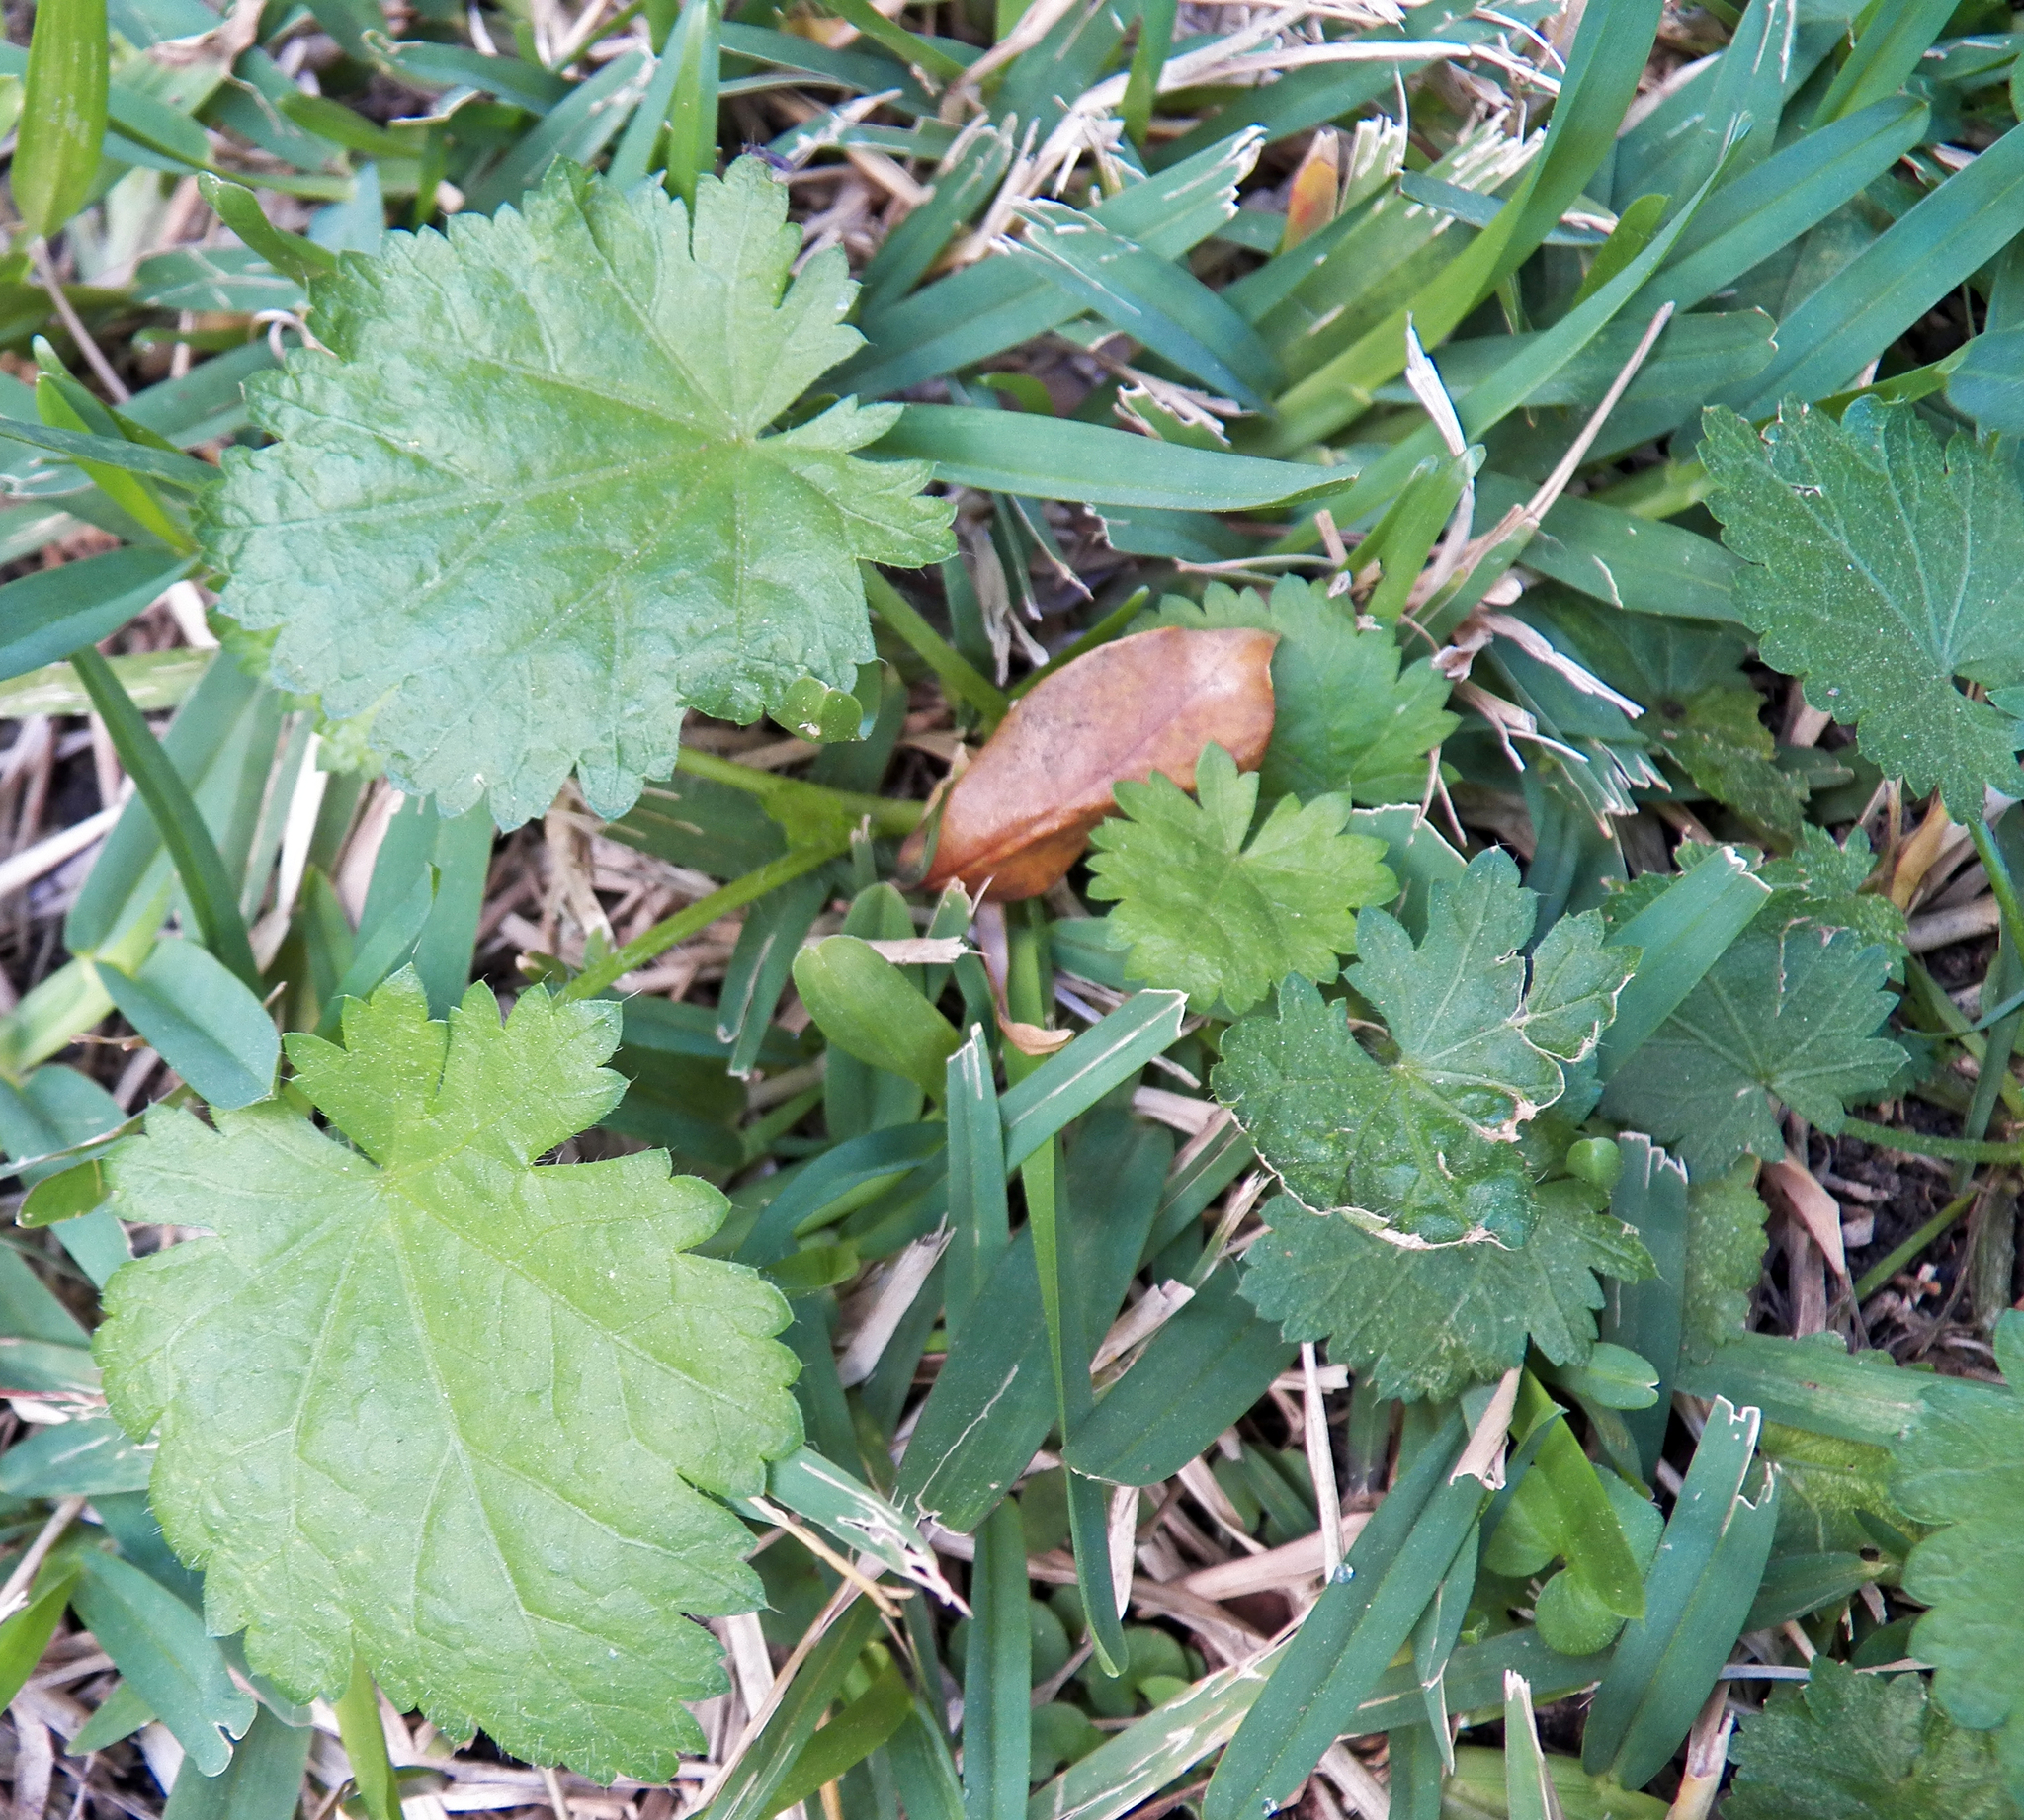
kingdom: Plantae
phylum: Tracheophyta
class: Magnoliopsida
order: Malvales
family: Malvaceae
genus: Modiola
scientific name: Modiola caroliniana
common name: Carolina bristlemallow
